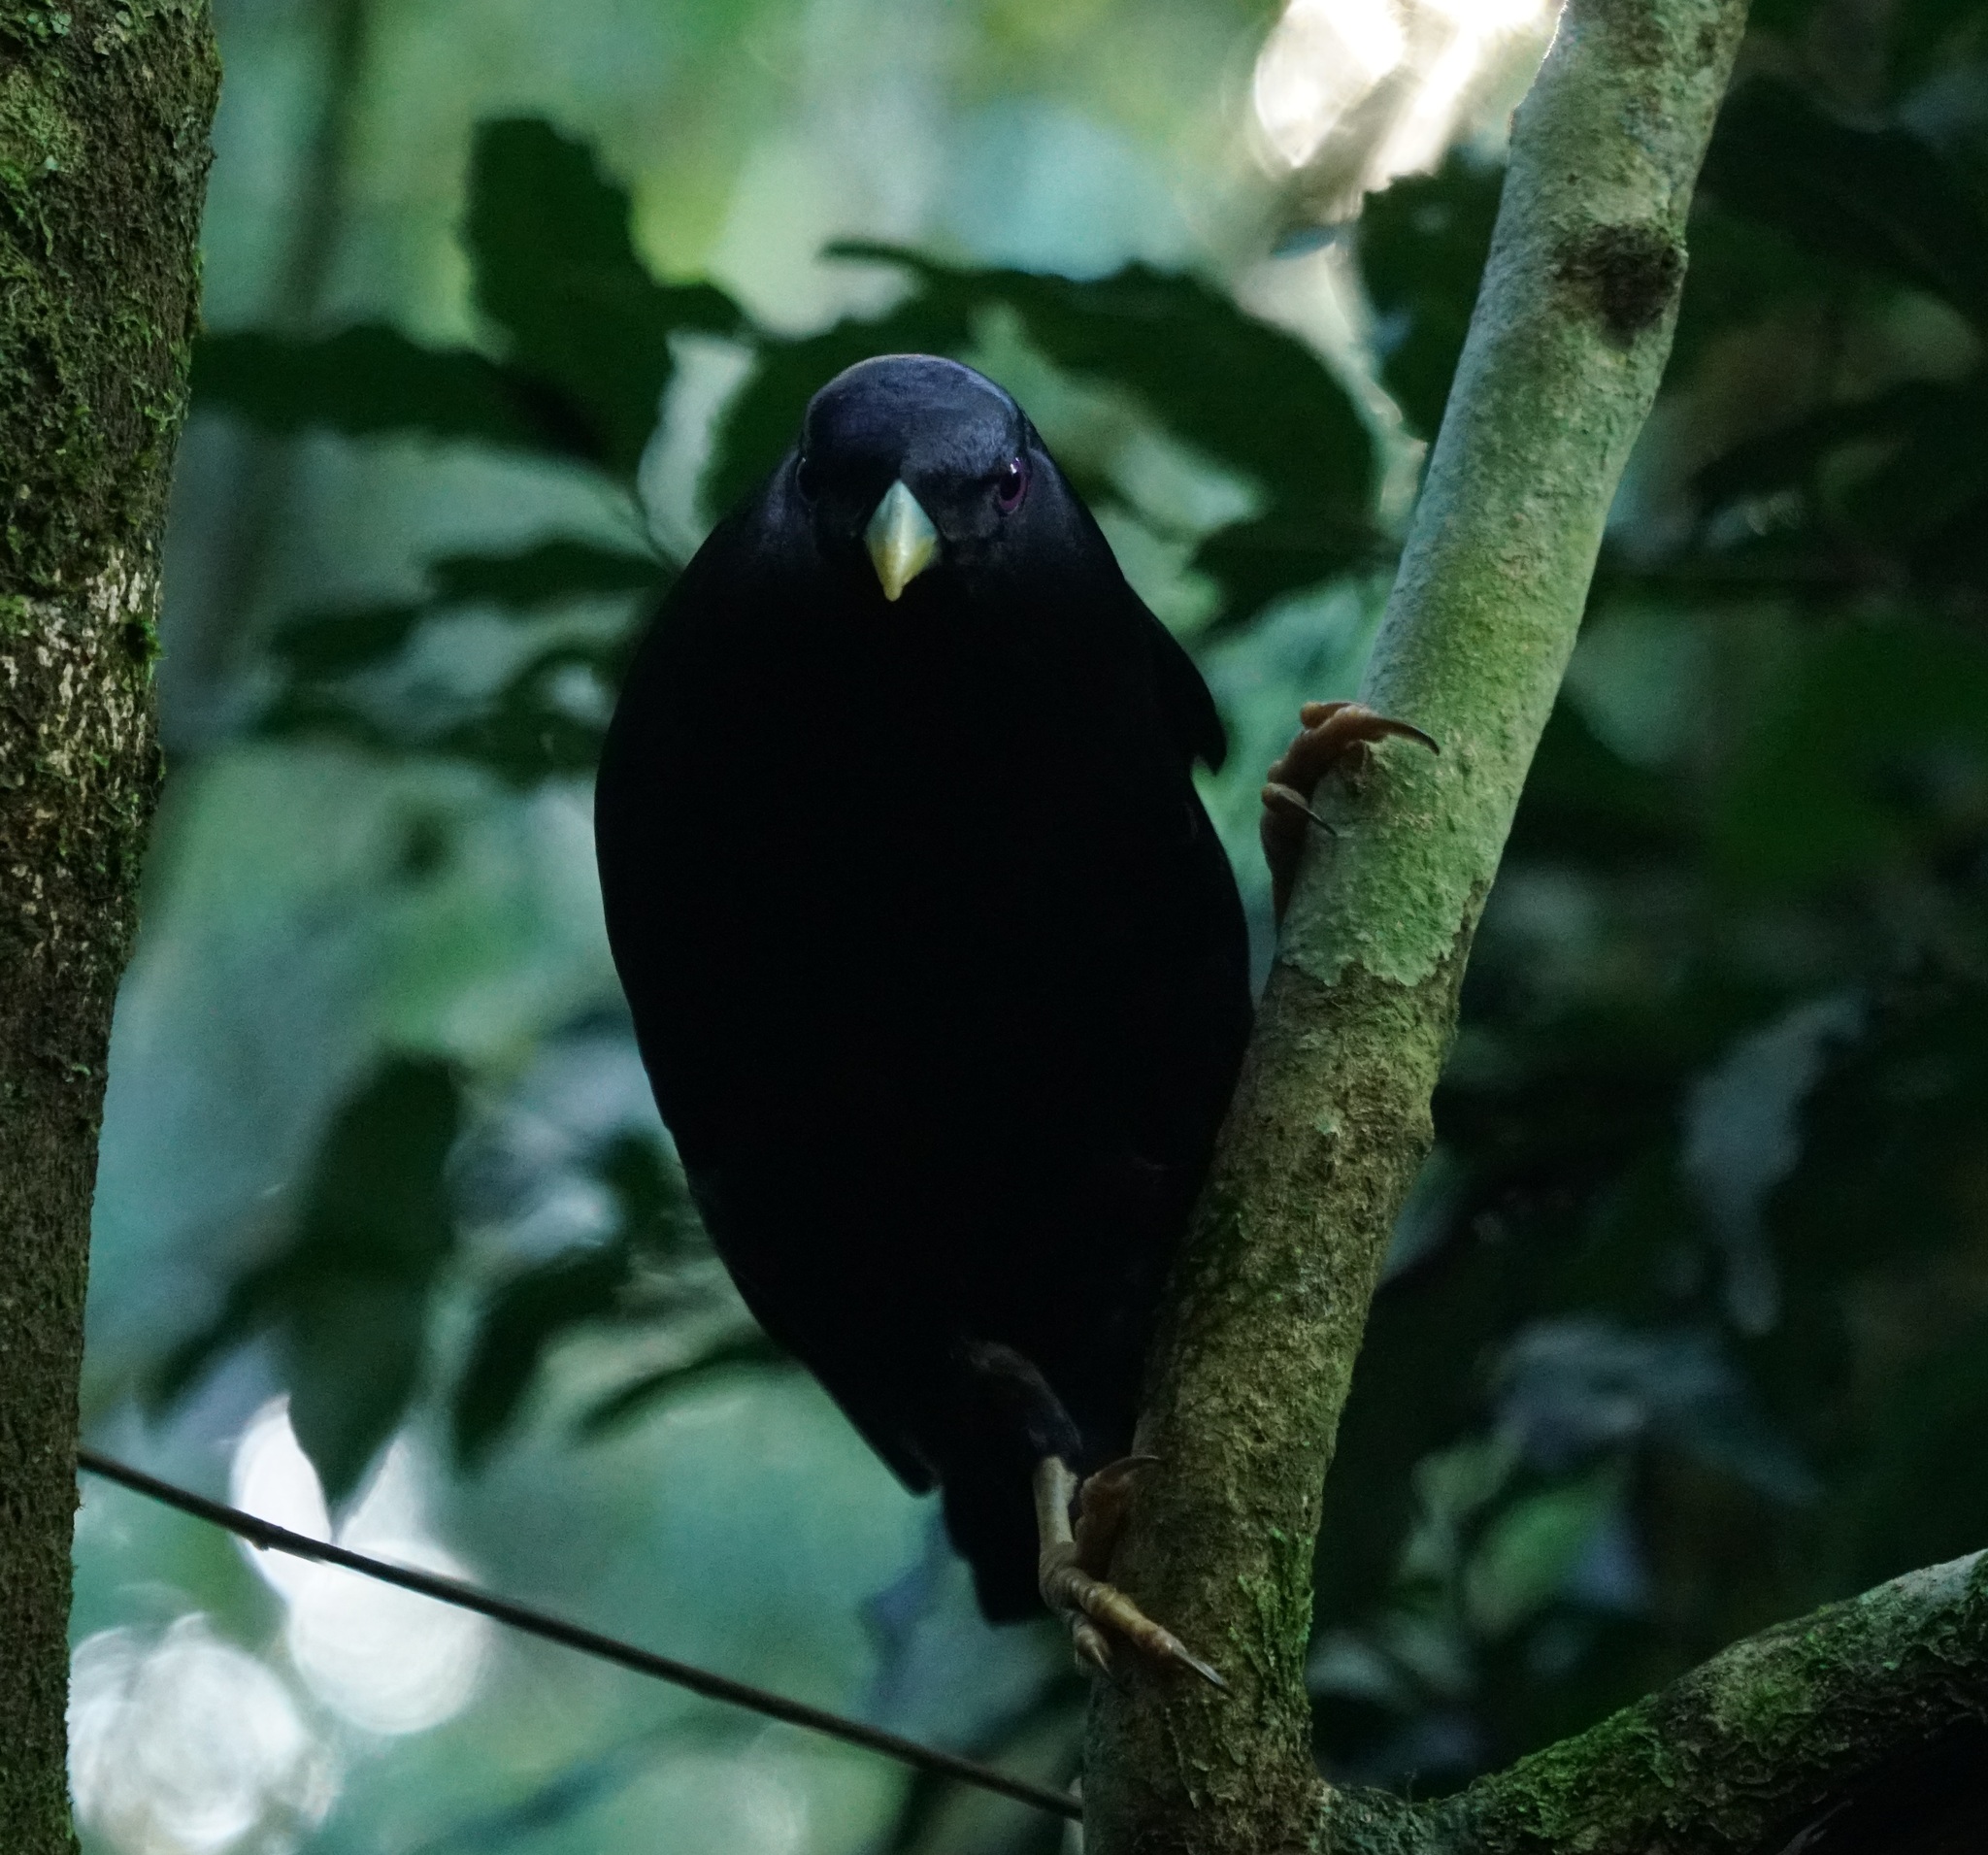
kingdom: Animalia
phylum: Chordata
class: Aves
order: Passeriformes
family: Ptilonorhynchidae
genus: Ptilonorhynchus
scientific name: Ptilonorhynchus violaceus
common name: Satin bowerbird
